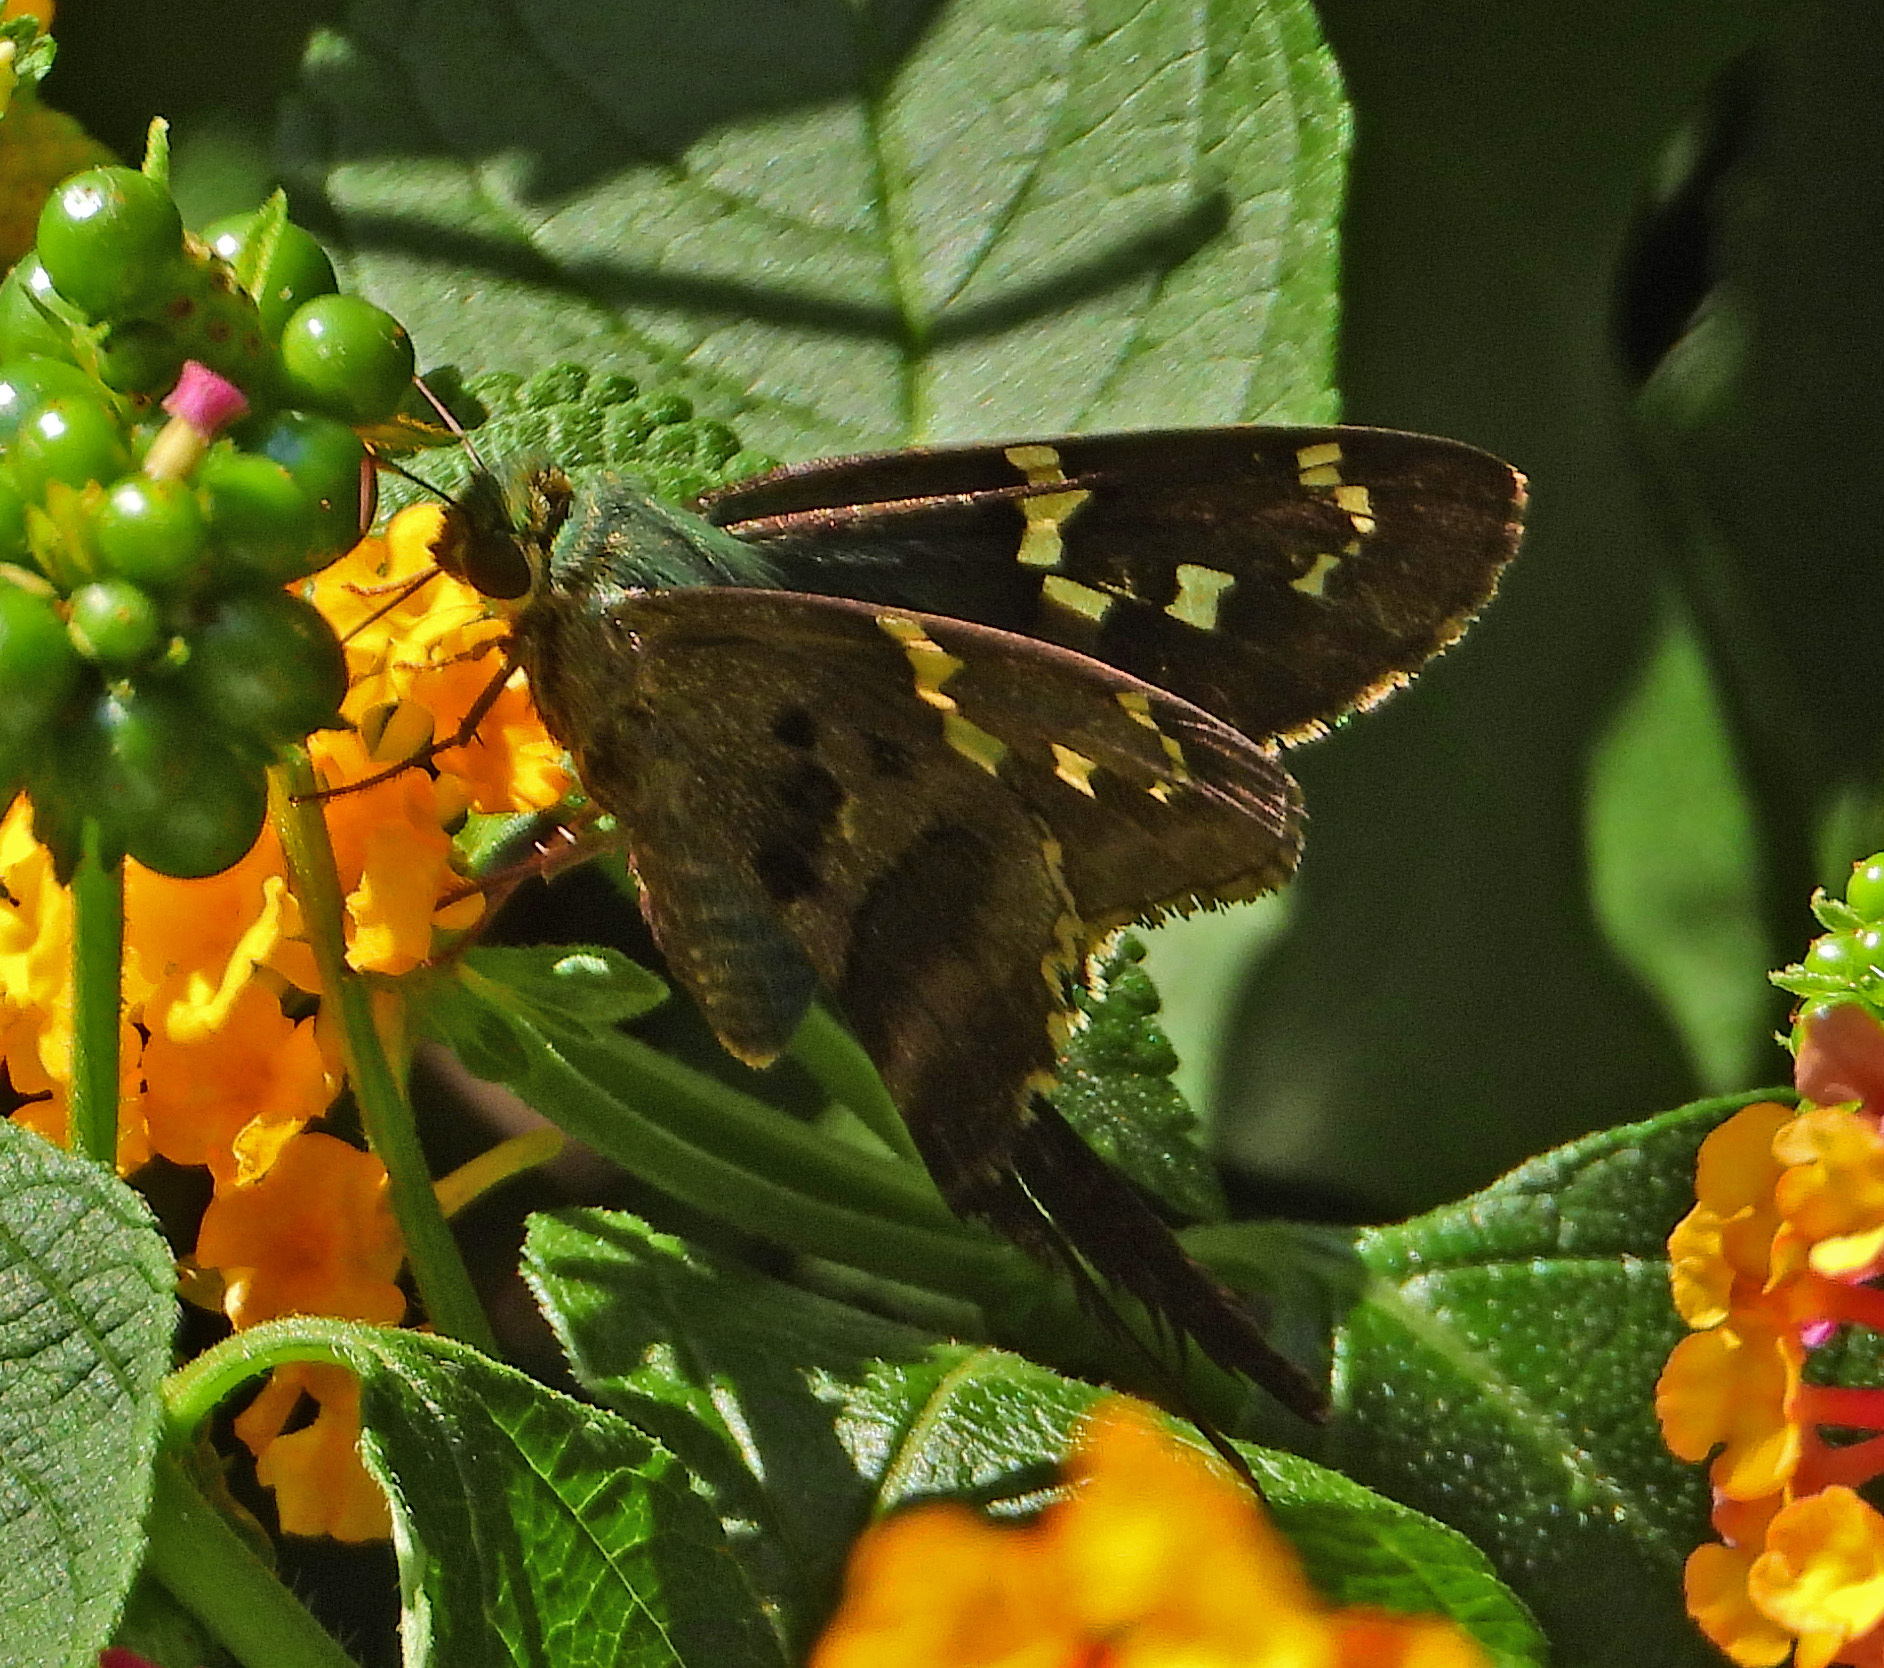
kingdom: Animalia
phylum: Arthropoda
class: Insecta
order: Lepidoptera
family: Hesperiidae
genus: Urbanus
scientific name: Urbanus proteus
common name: Long-tailed skipper
